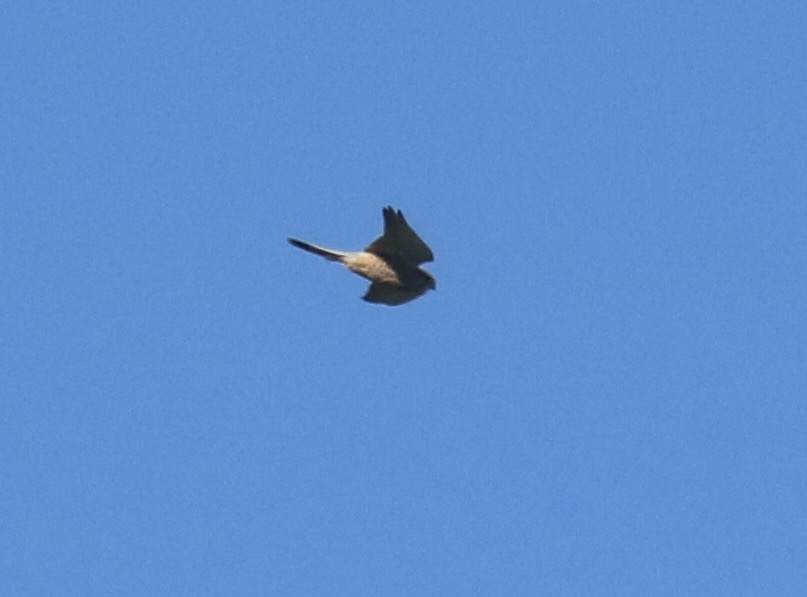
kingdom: Animalia
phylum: Chordata
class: Aves
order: Falconiformes
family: Falconidae
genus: Falco
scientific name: Falco tinnunculus
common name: Common kestrel
